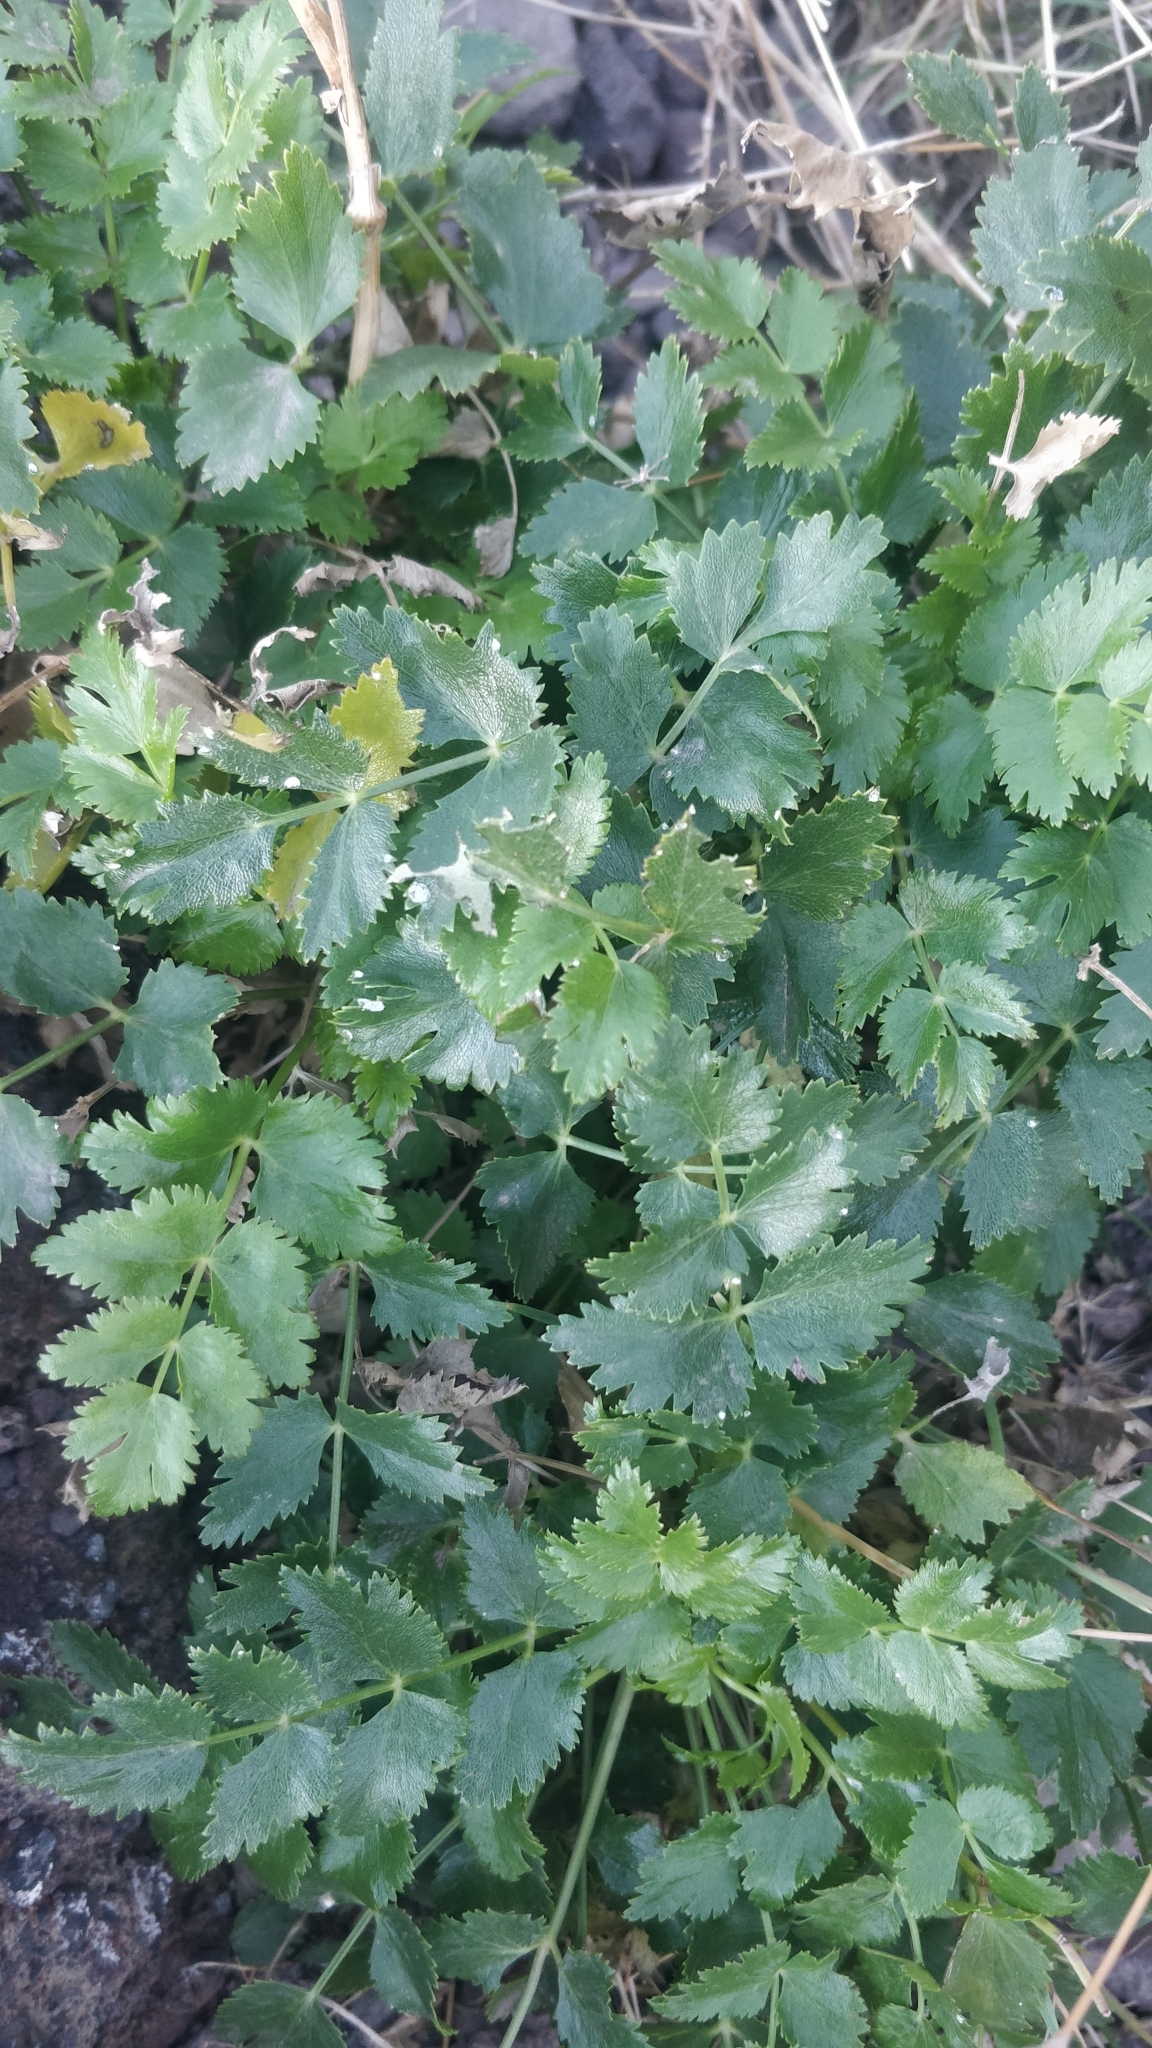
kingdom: Plantae
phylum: Tracheophyta
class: Magnoliopsida
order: Apiales
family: Apiaceae
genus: Pimpinella
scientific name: Pimpinella dendroselinum
